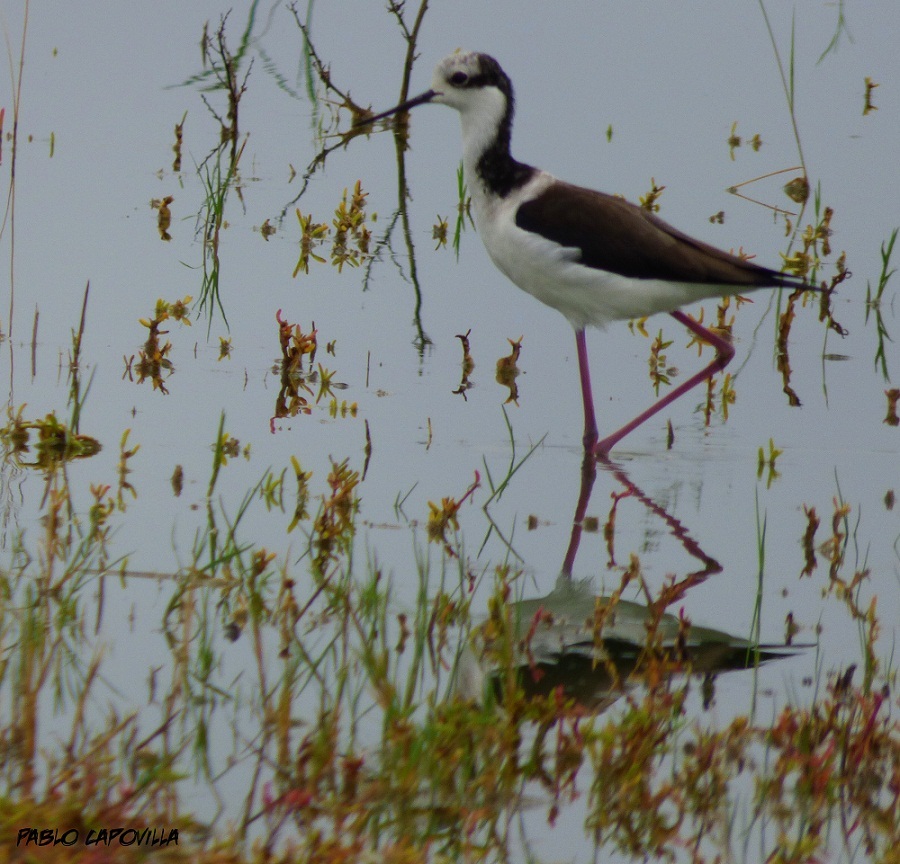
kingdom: Animalia
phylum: Chordata
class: Aves
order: Charadriiformes
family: Recurvirostridae
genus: Himantopus
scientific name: Himantopus mexicanus
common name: Black-necked stilt
